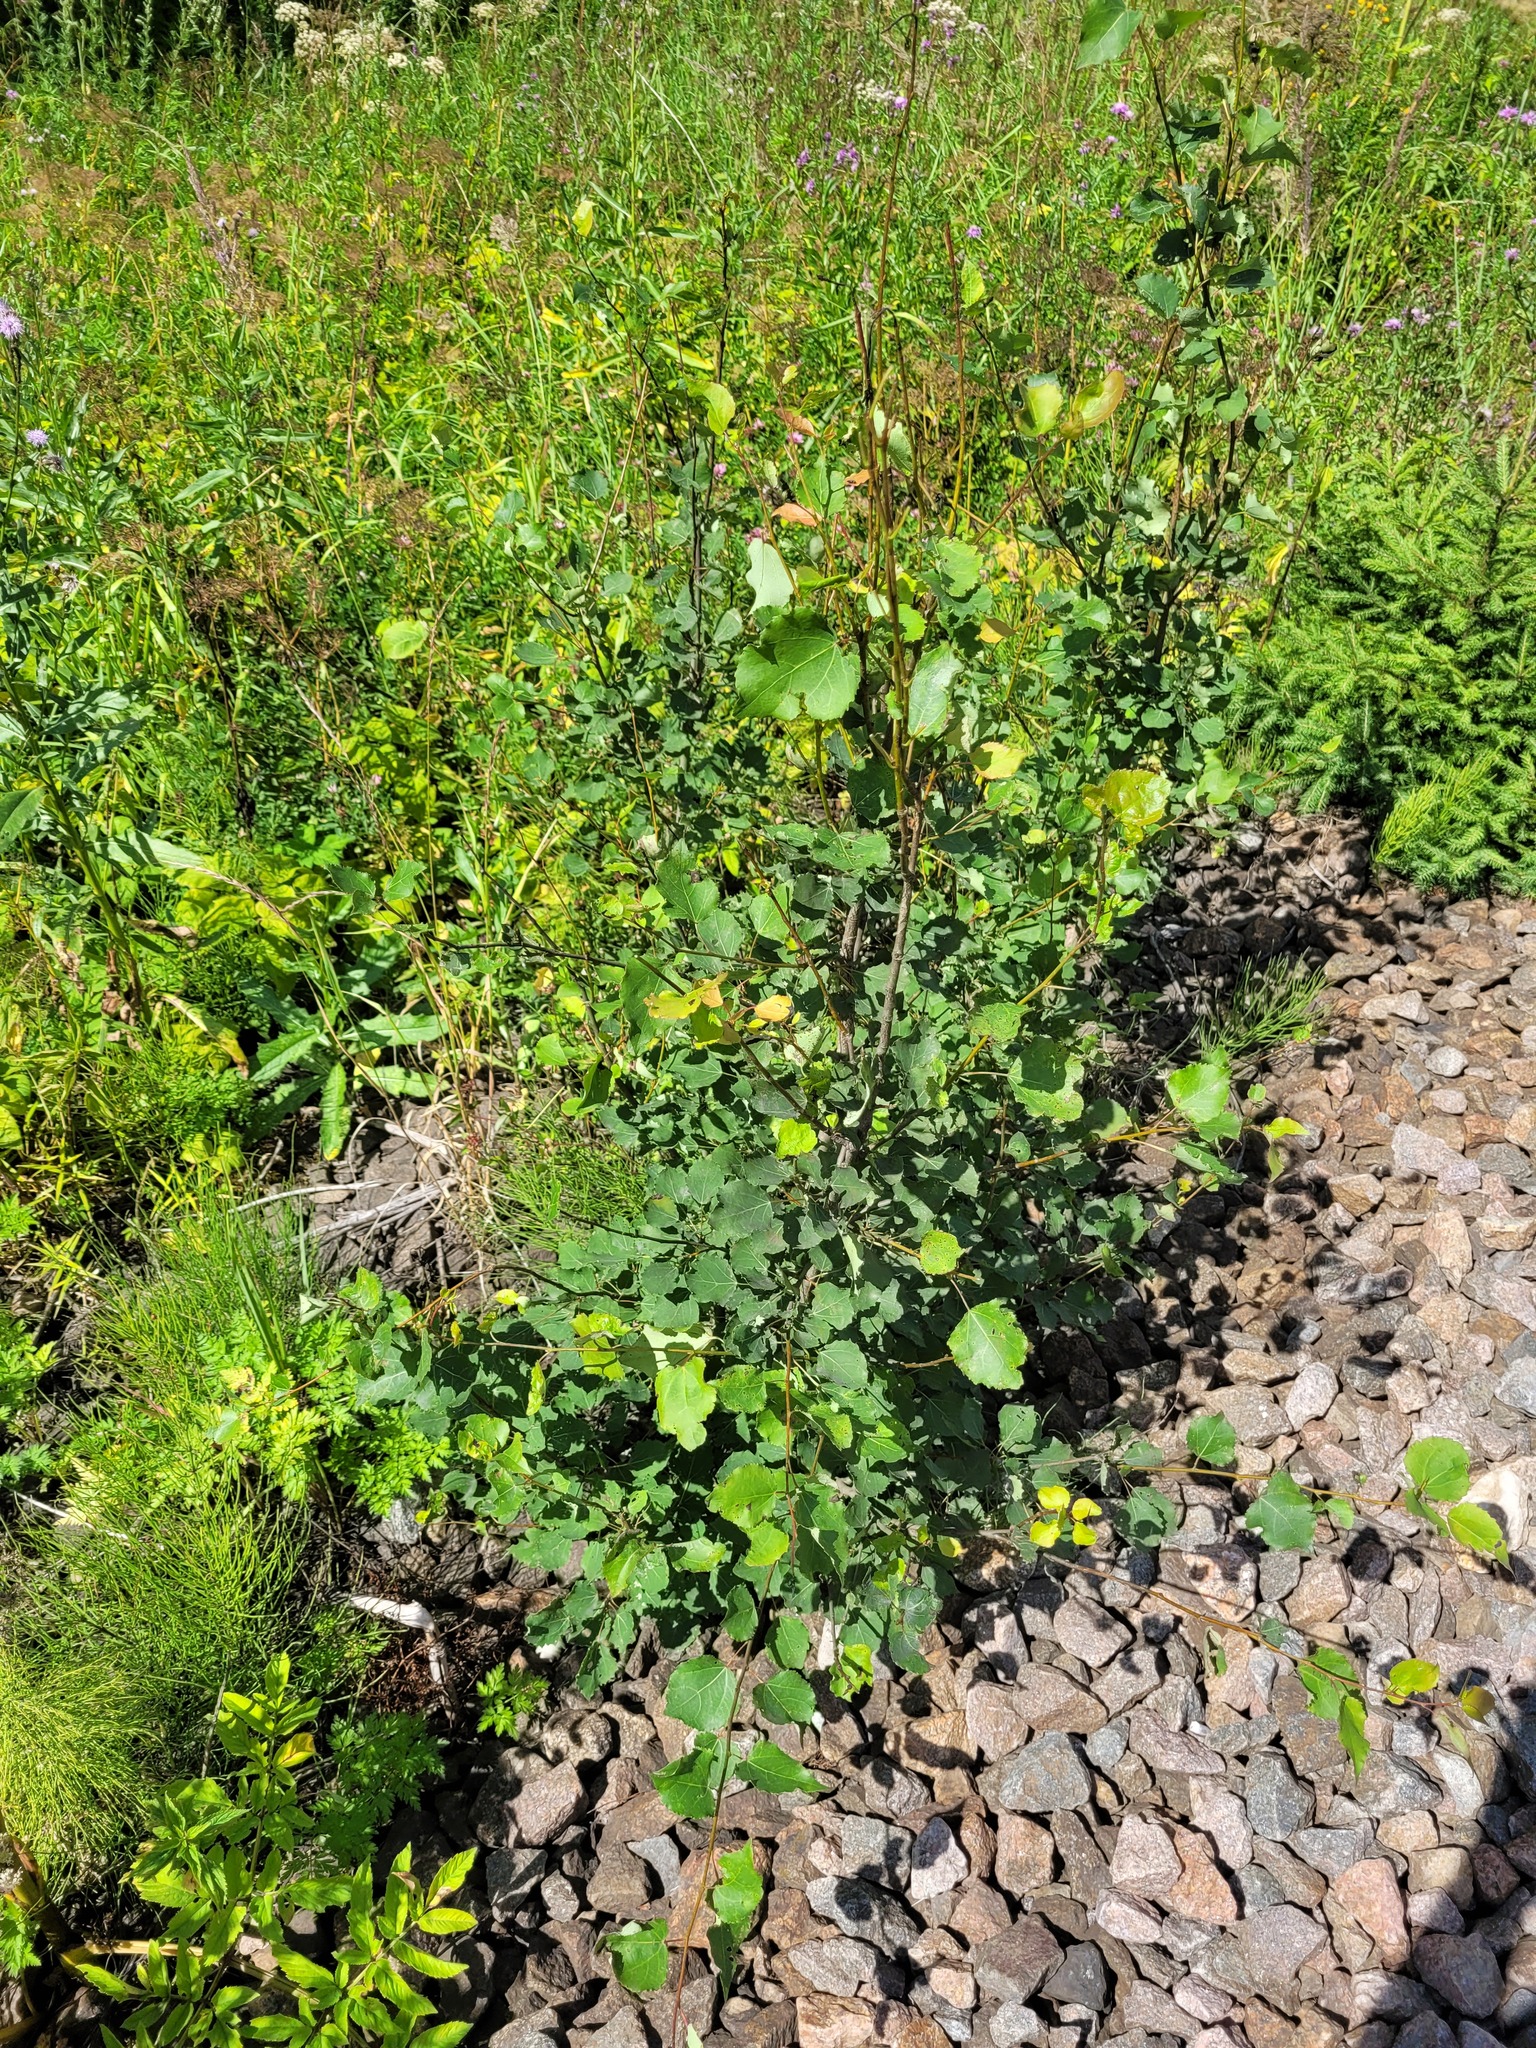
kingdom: Plantae
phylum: Tracheophyta
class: Magnoliopsida
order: Malpighiales
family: Salicaceae
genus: Populus
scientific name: Populus tremula
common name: European aspen
